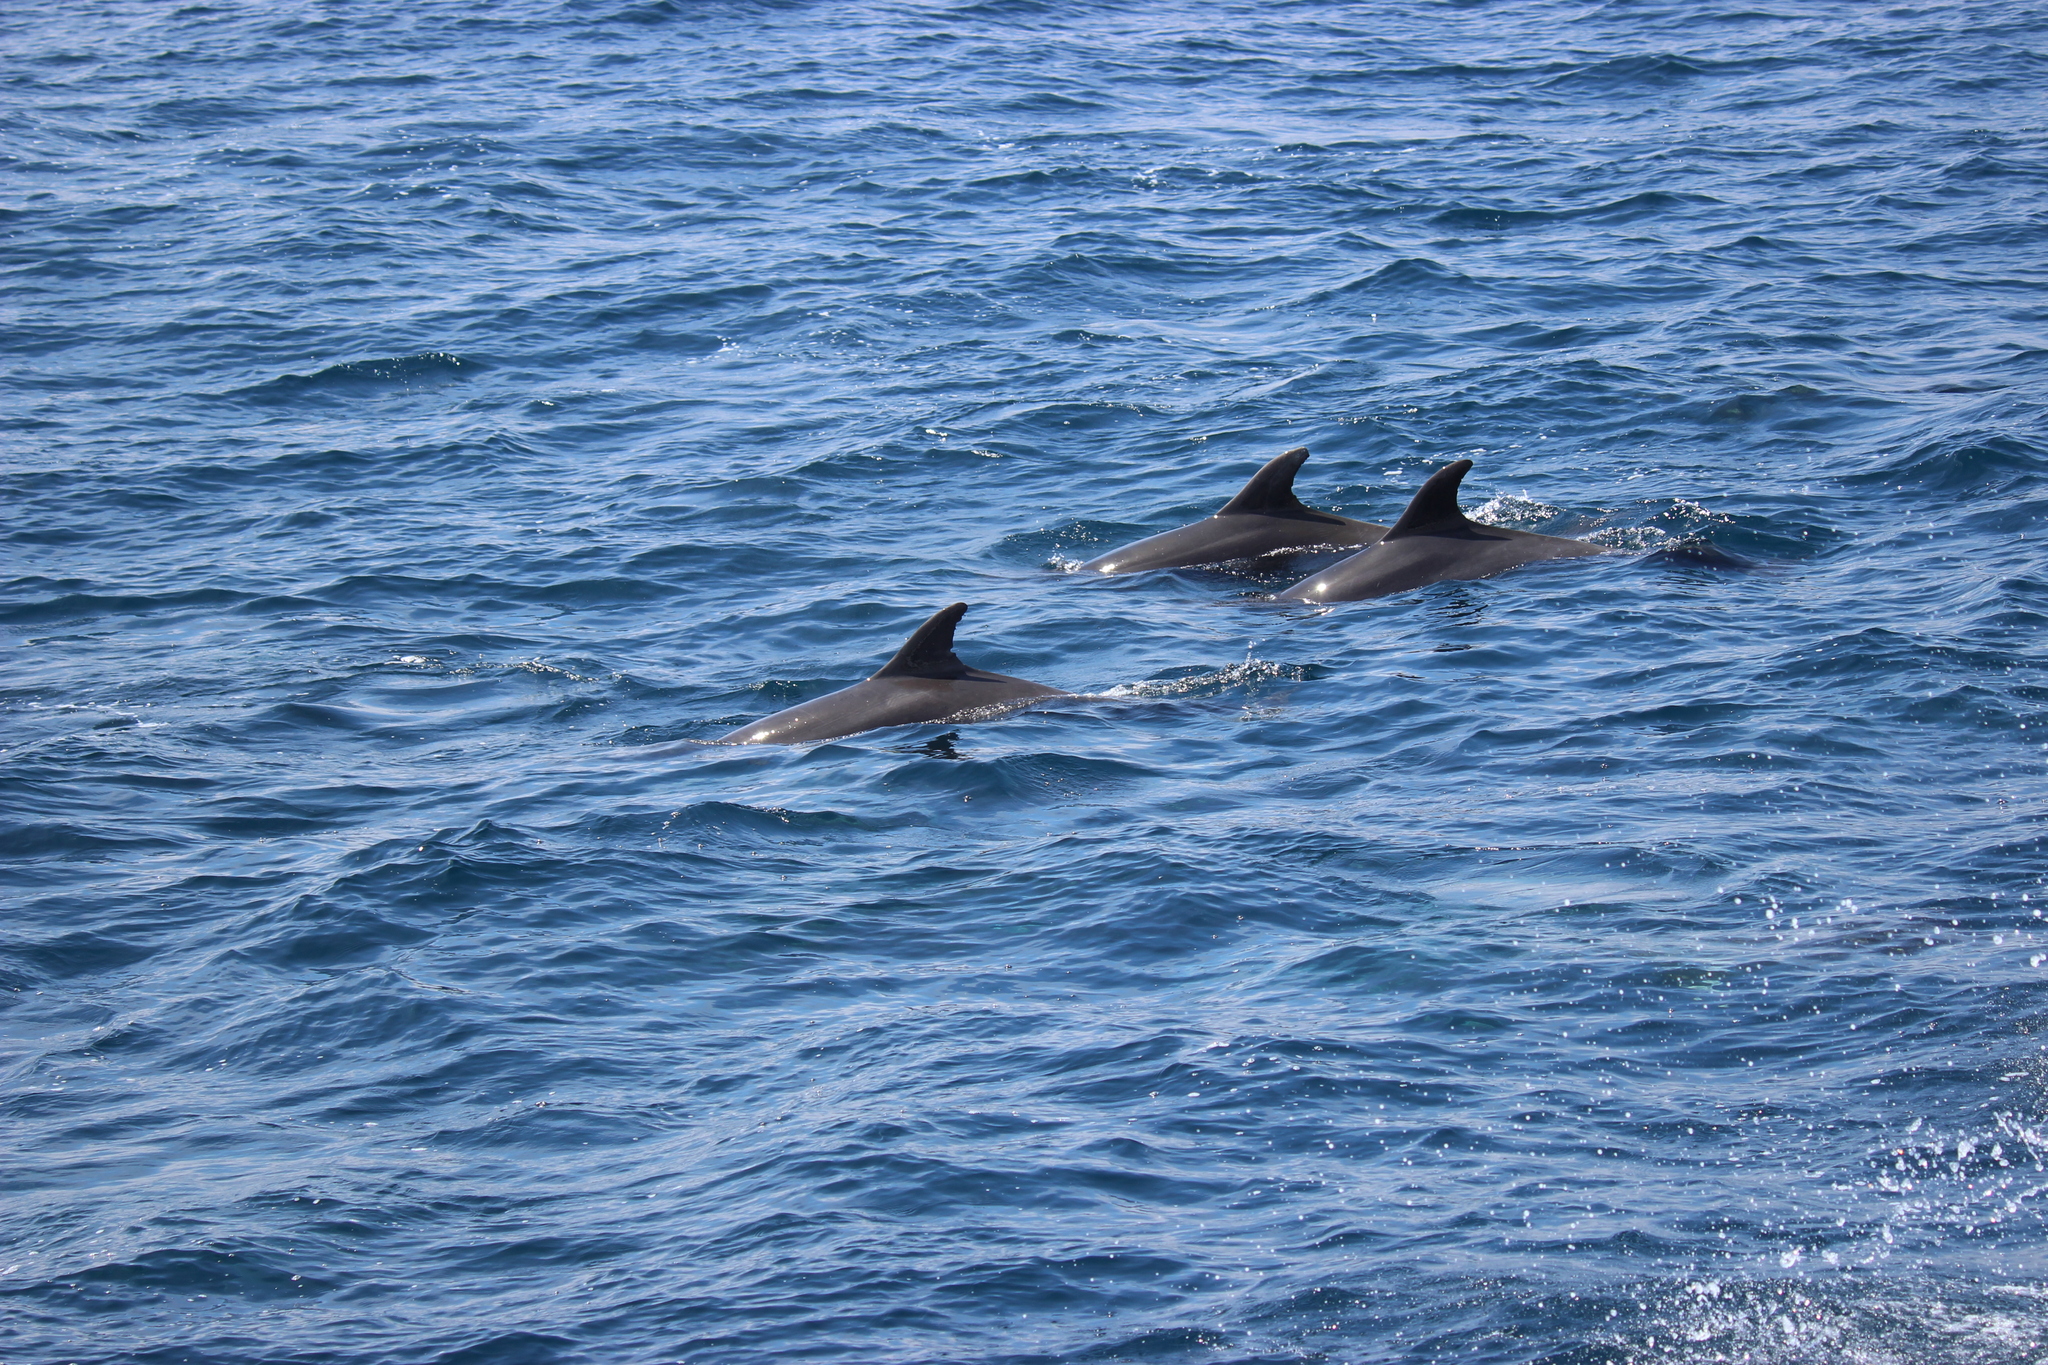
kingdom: Animalia
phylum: Chordata
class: Mammalia
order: Cetacea
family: Delphinidae
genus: Tursiops
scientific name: Tursiops truncatus
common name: Bottlenose dolphin
